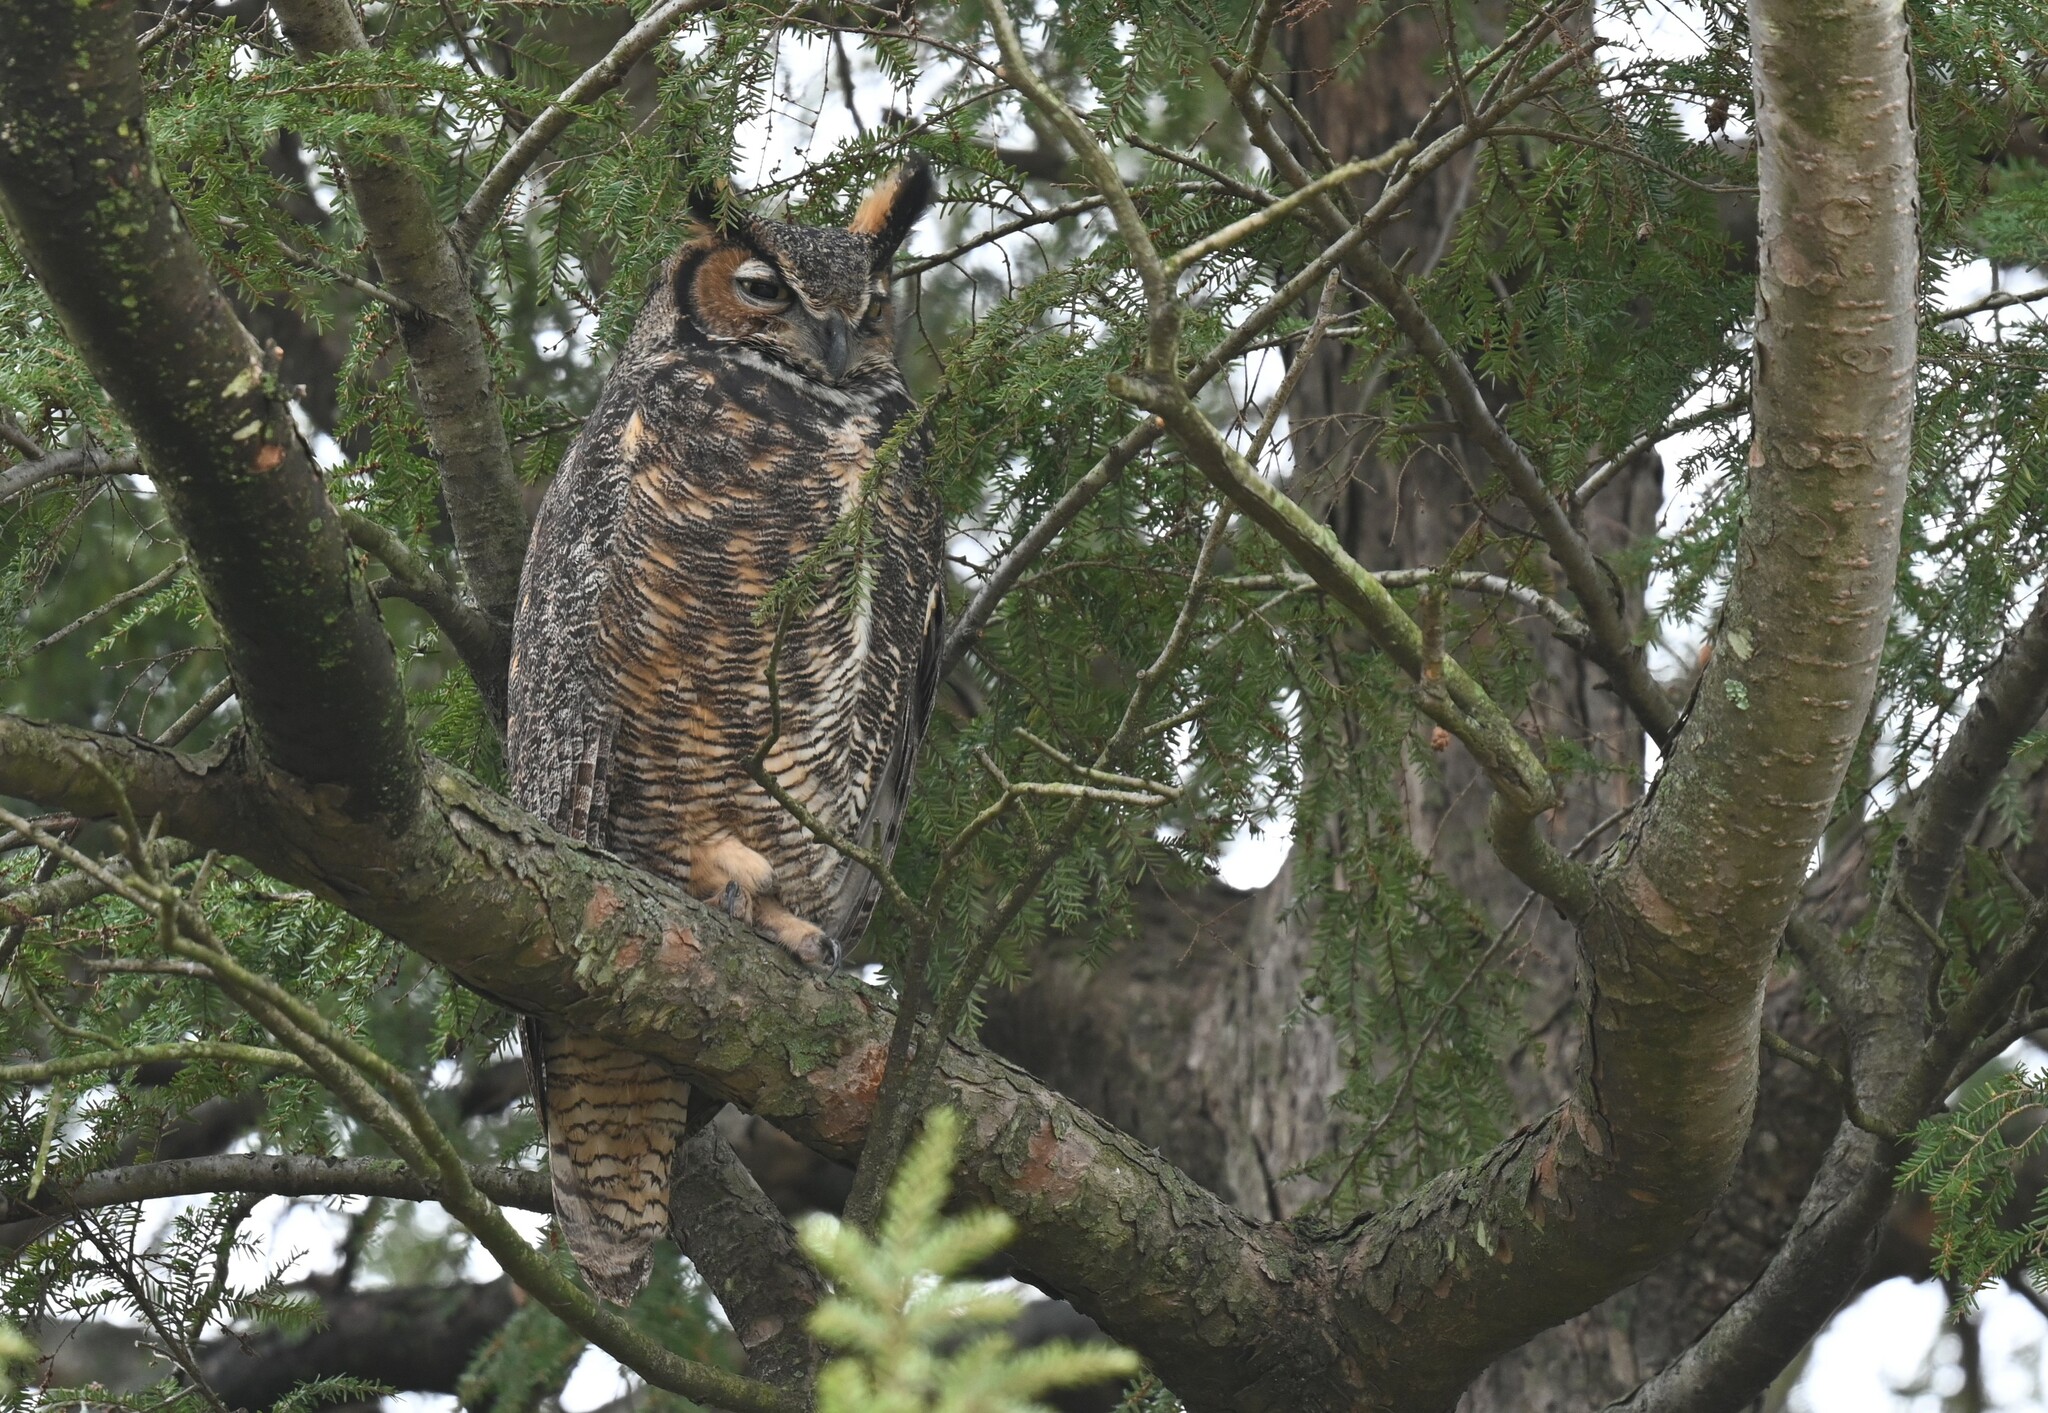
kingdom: Animalia
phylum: Chordata
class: Aves
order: Strigiformes
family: Strigidae
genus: Bubo
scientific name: Bubo virginianus
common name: Great horned owl
